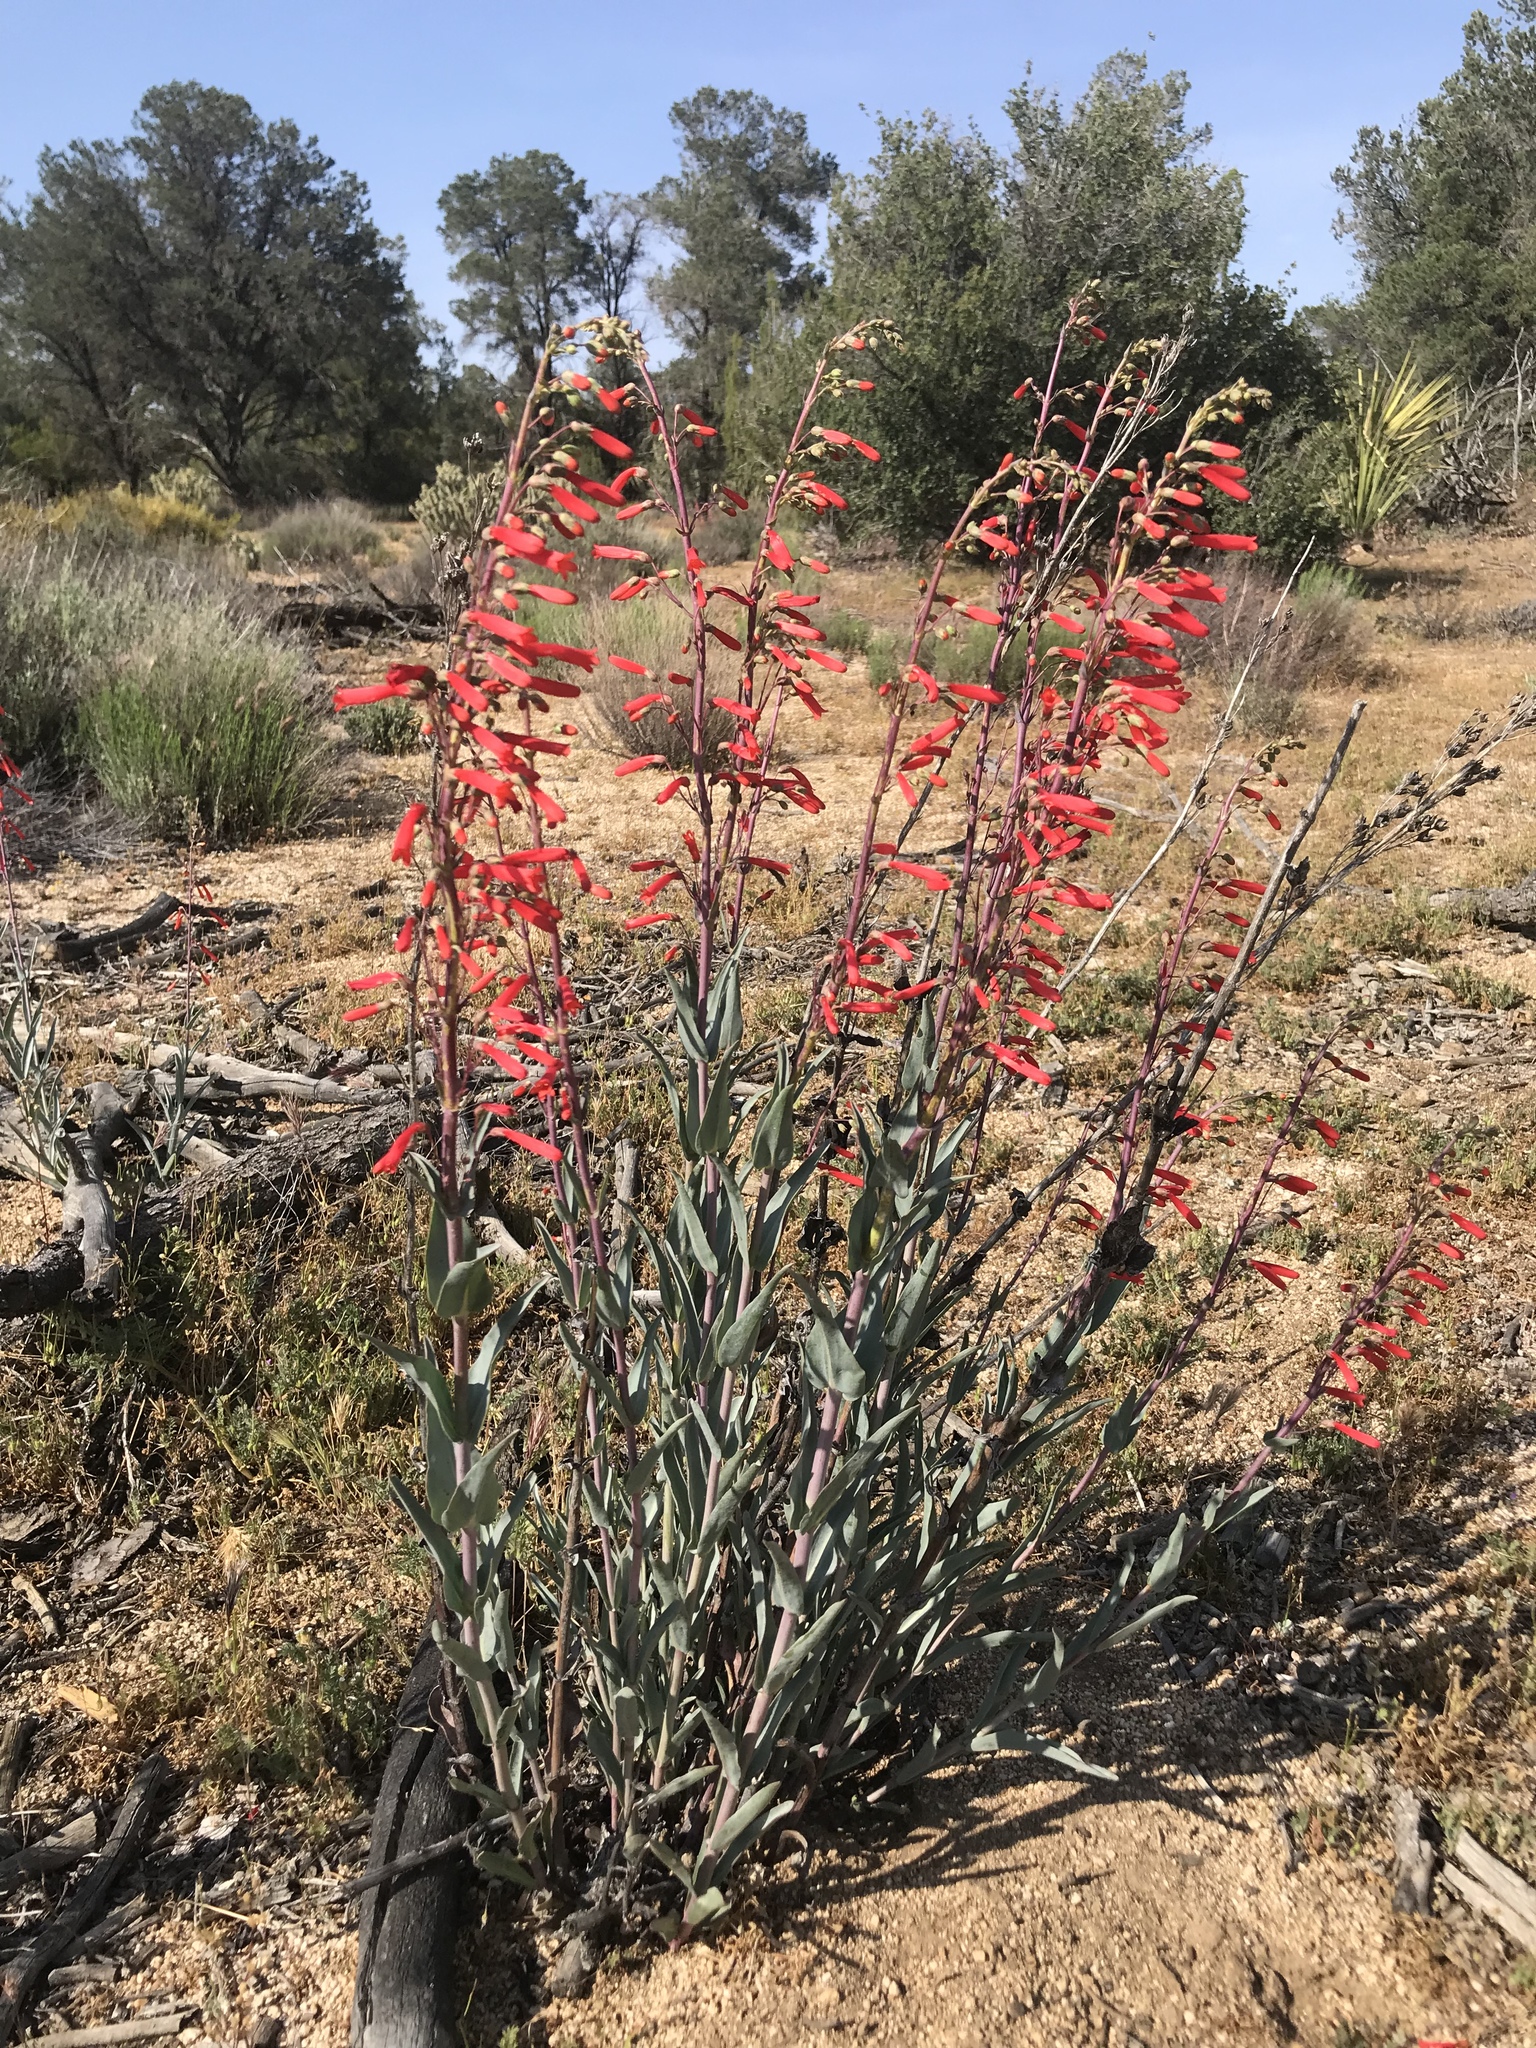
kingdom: Plantae
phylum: Tracheophyta
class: Magnoliopsida
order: Lamiales
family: Plantaginaceae
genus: Penstemon
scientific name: Penstemon centranthifolius
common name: Scarlet bugler
